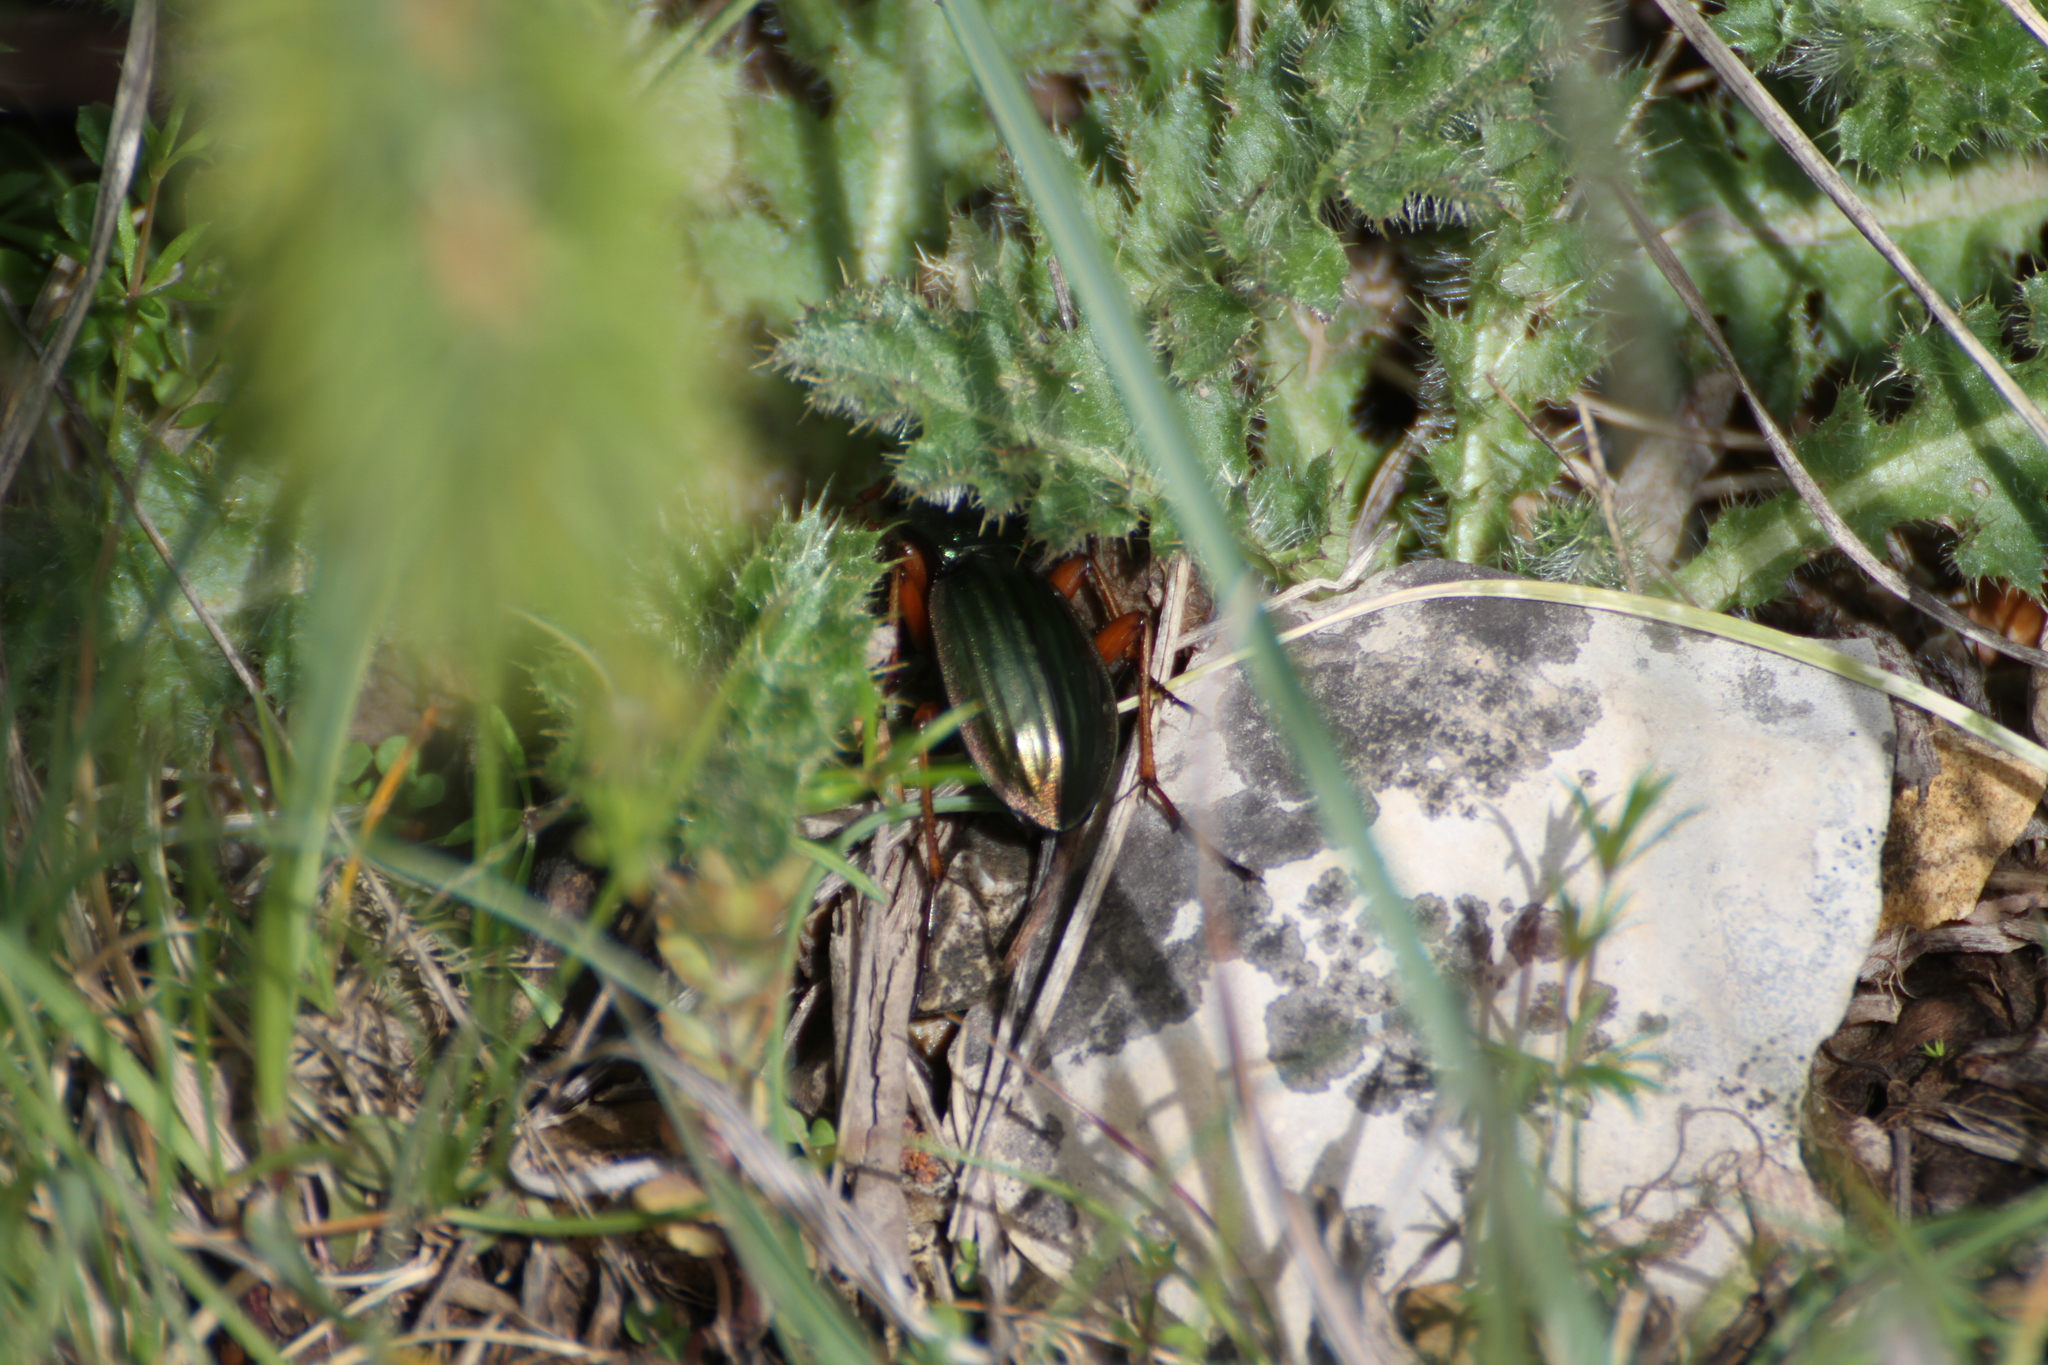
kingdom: Animalia
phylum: Arthropoda
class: Insecta
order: Coleoptera
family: Carabidae
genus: Carabus
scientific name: Carabus auratus
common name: Golden ground beetle
